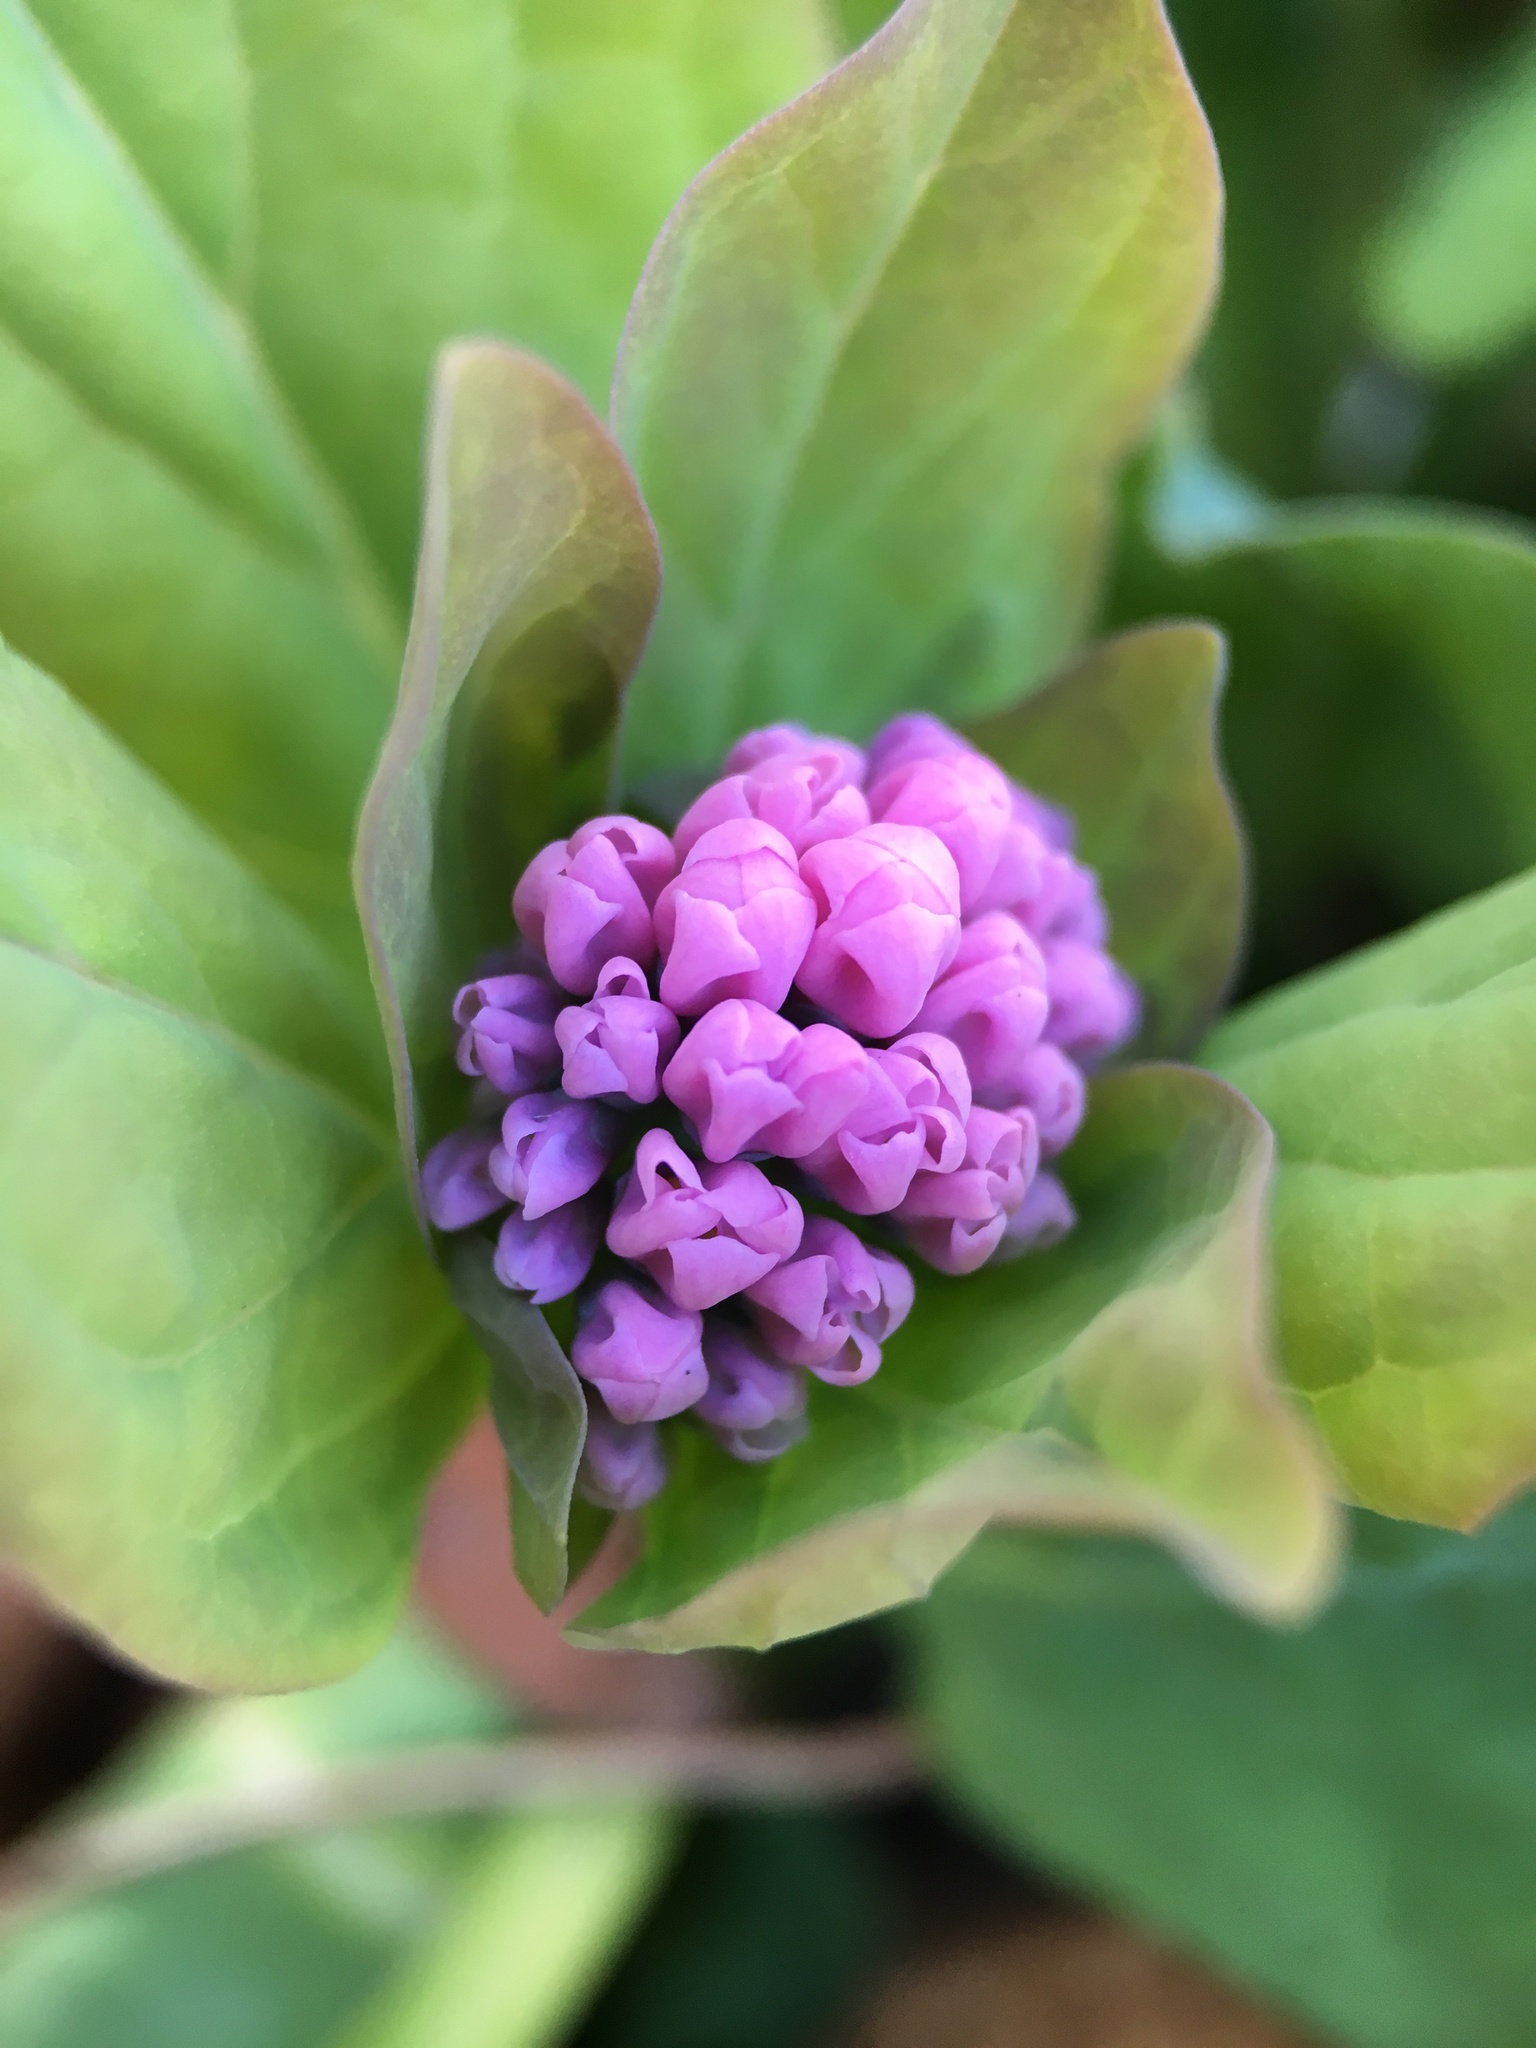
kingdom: Plantae
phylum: Tracheophyta
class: Magnoliopsida
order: Boraginales
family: Boraginaceae
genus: Mertensia
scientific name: Mertensia virginica
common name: Virginia bluebells
